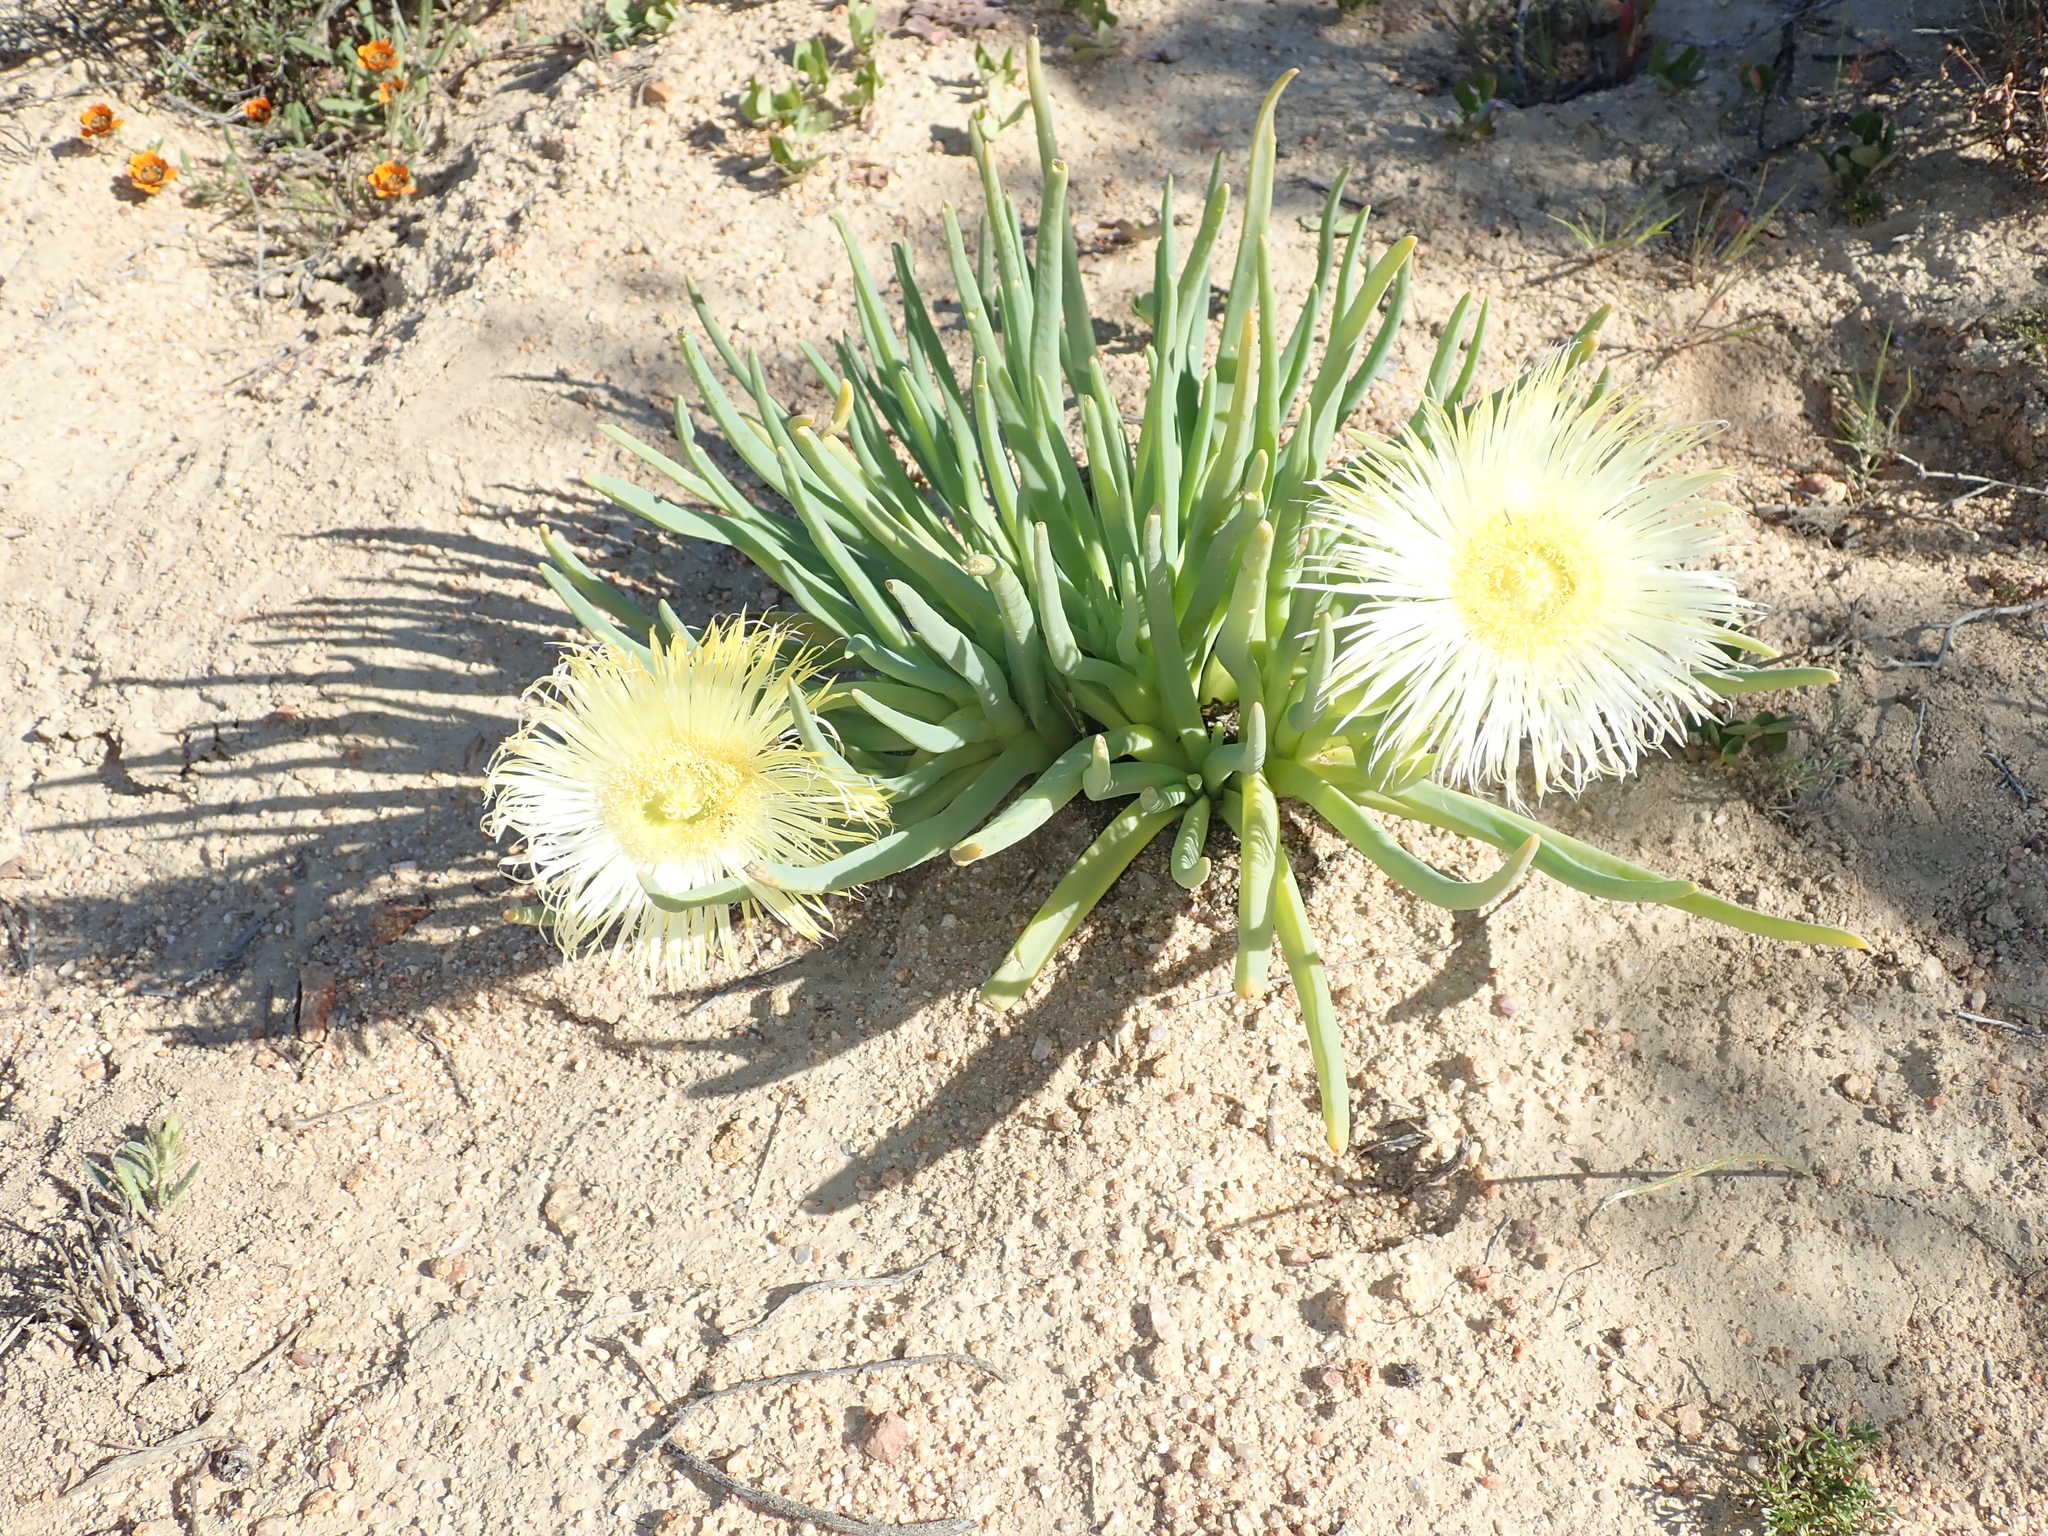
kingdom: Plantae
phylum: Tracheophyta
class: Magnoliopsida
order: Caryophyllales
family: Aizoaceae
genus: Conicosia
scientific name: Conicosia elongata
